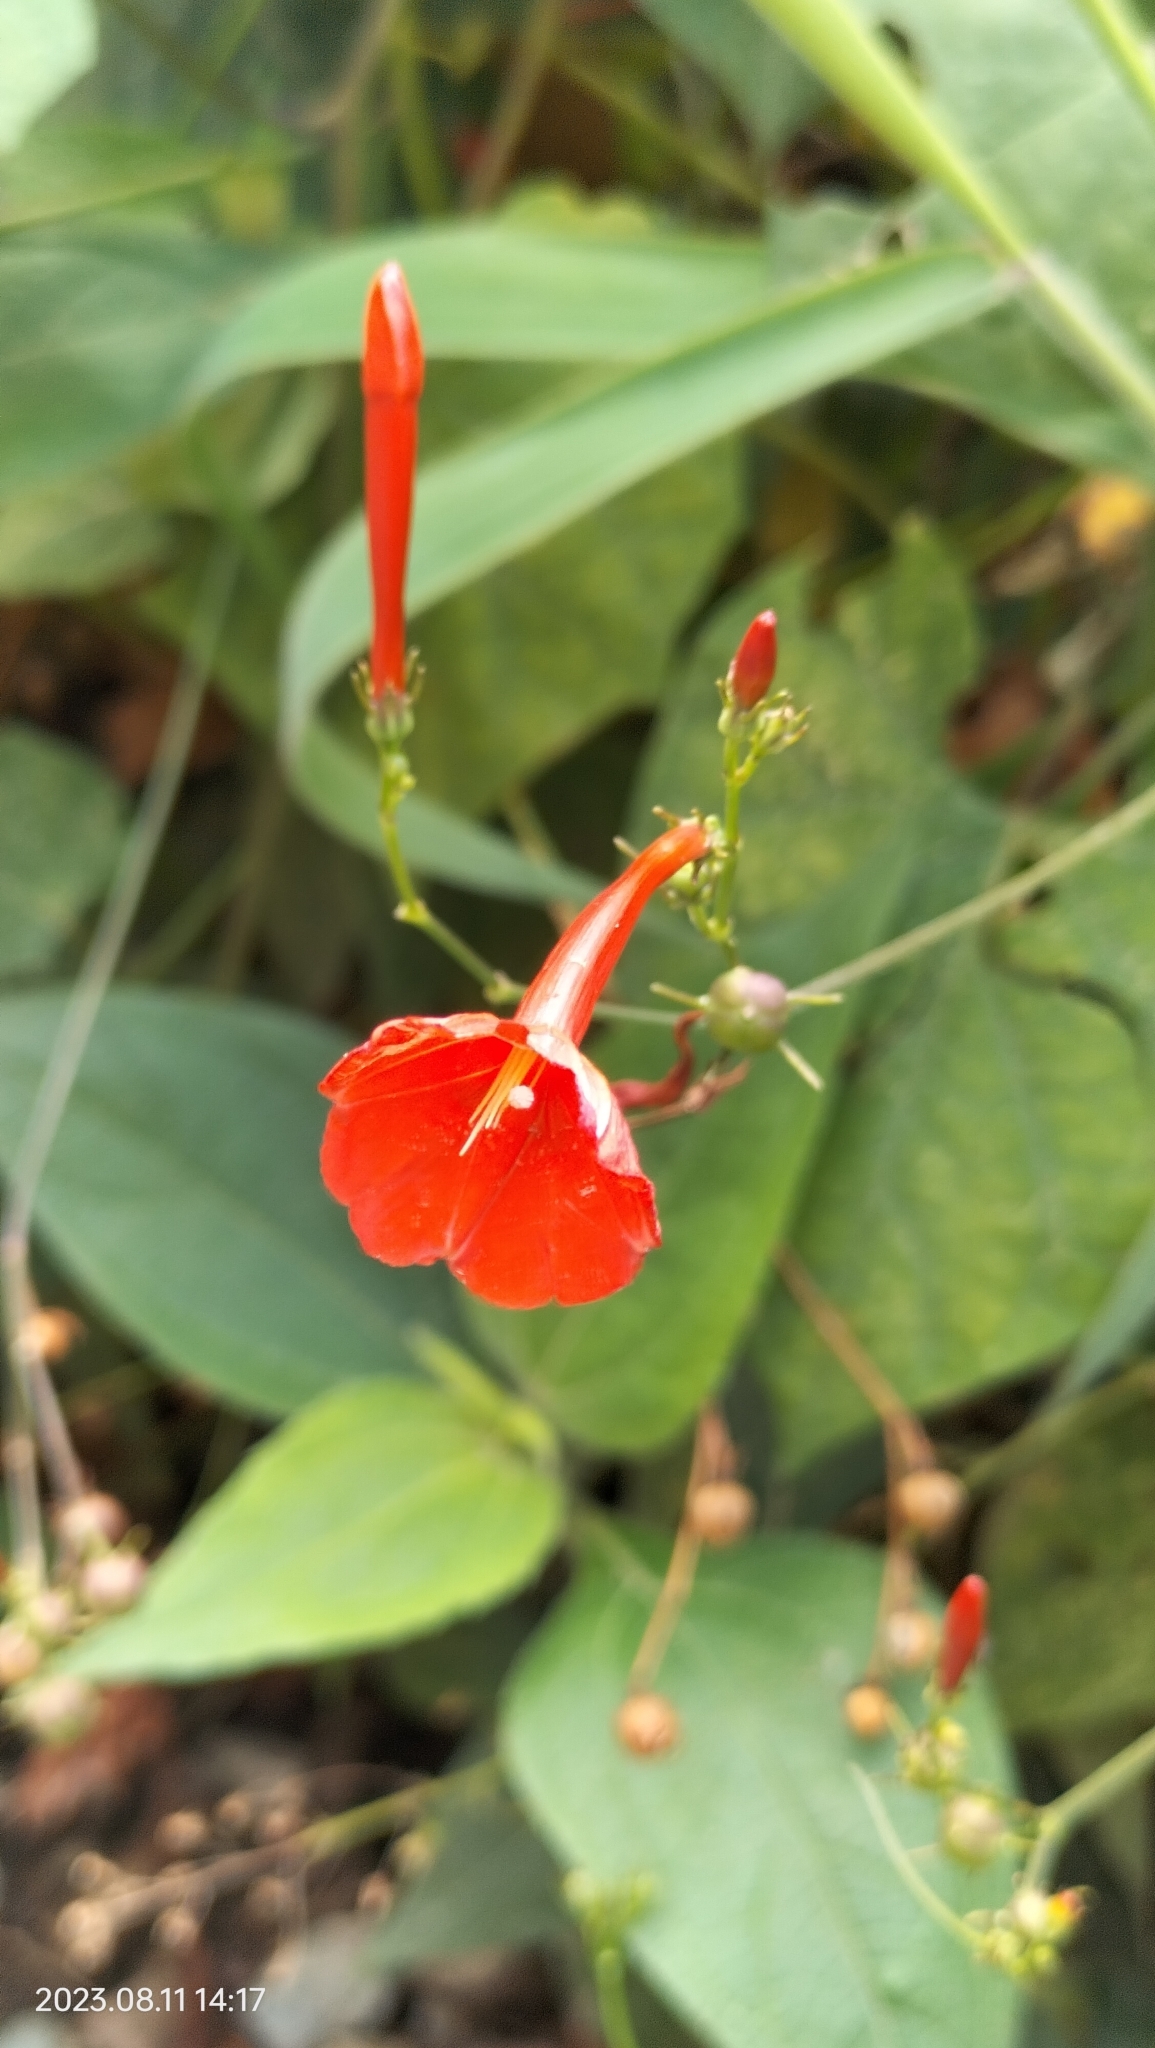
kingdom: Plantae
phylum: Tracheophyta
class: Magnoliopsida
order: Solanales
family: Convolvulaceae
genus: Ipomoea
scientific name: Ipomoea hederifolia
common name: Ivy-leaf morning-glory
